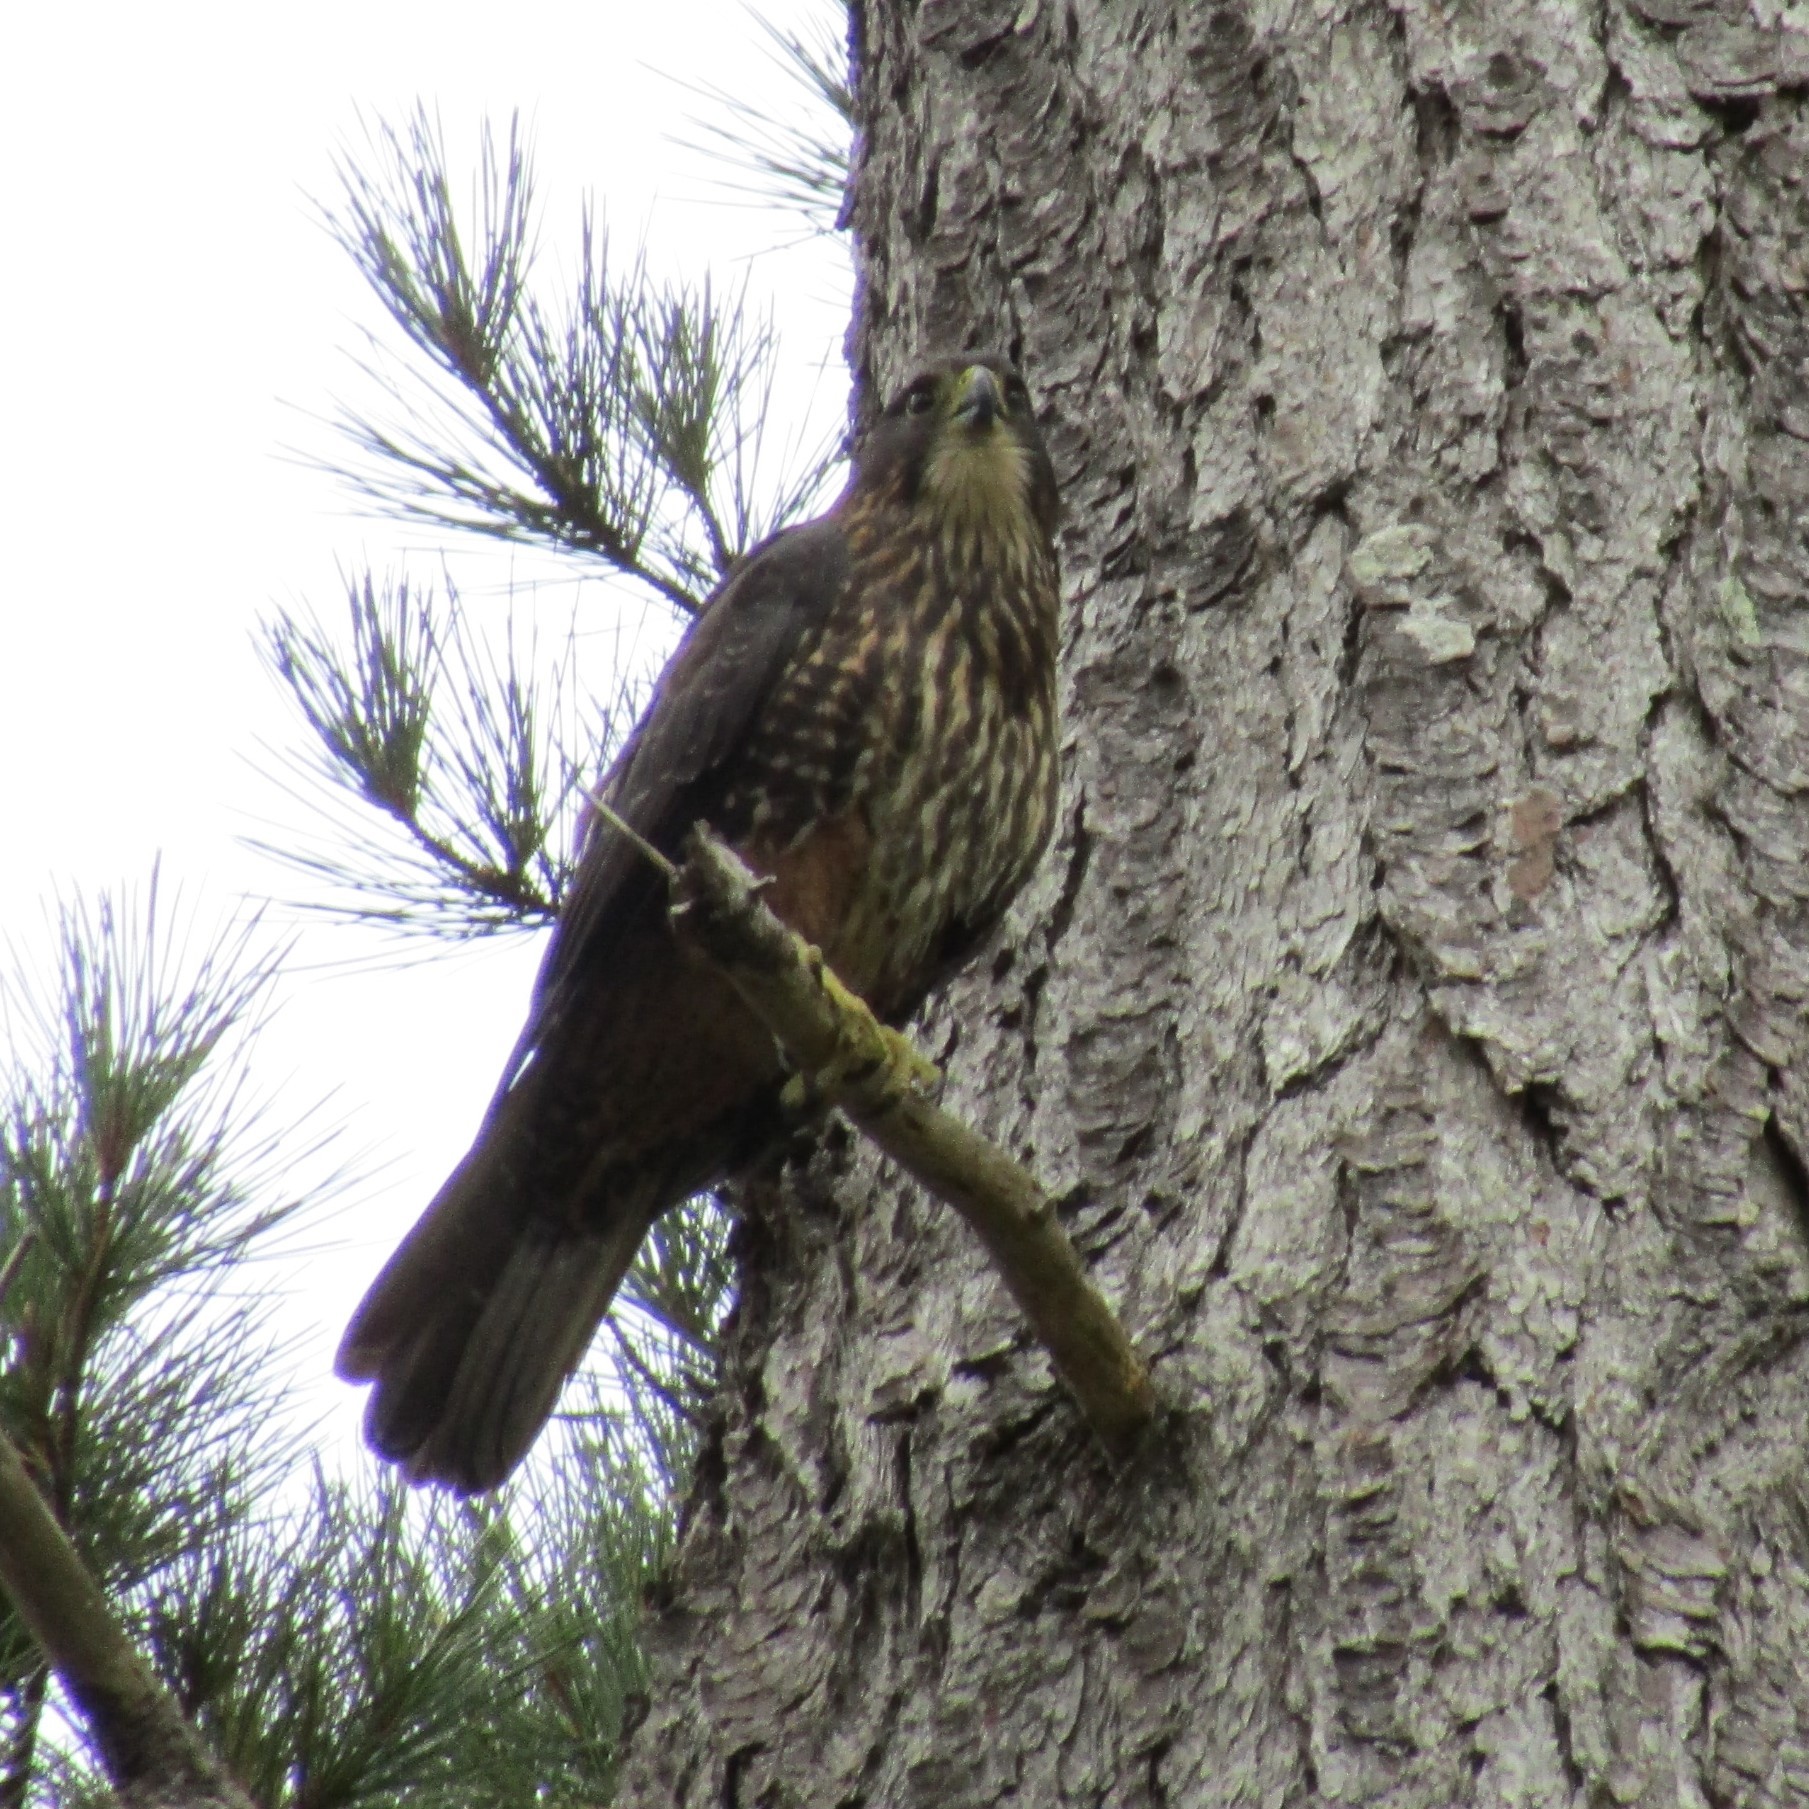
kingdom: Animalia
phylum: Chordata
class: Aves
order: Falconiformes
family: Falconidae
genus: Falco
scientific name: Falco novaeseelandiae
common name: New zealand falcon
